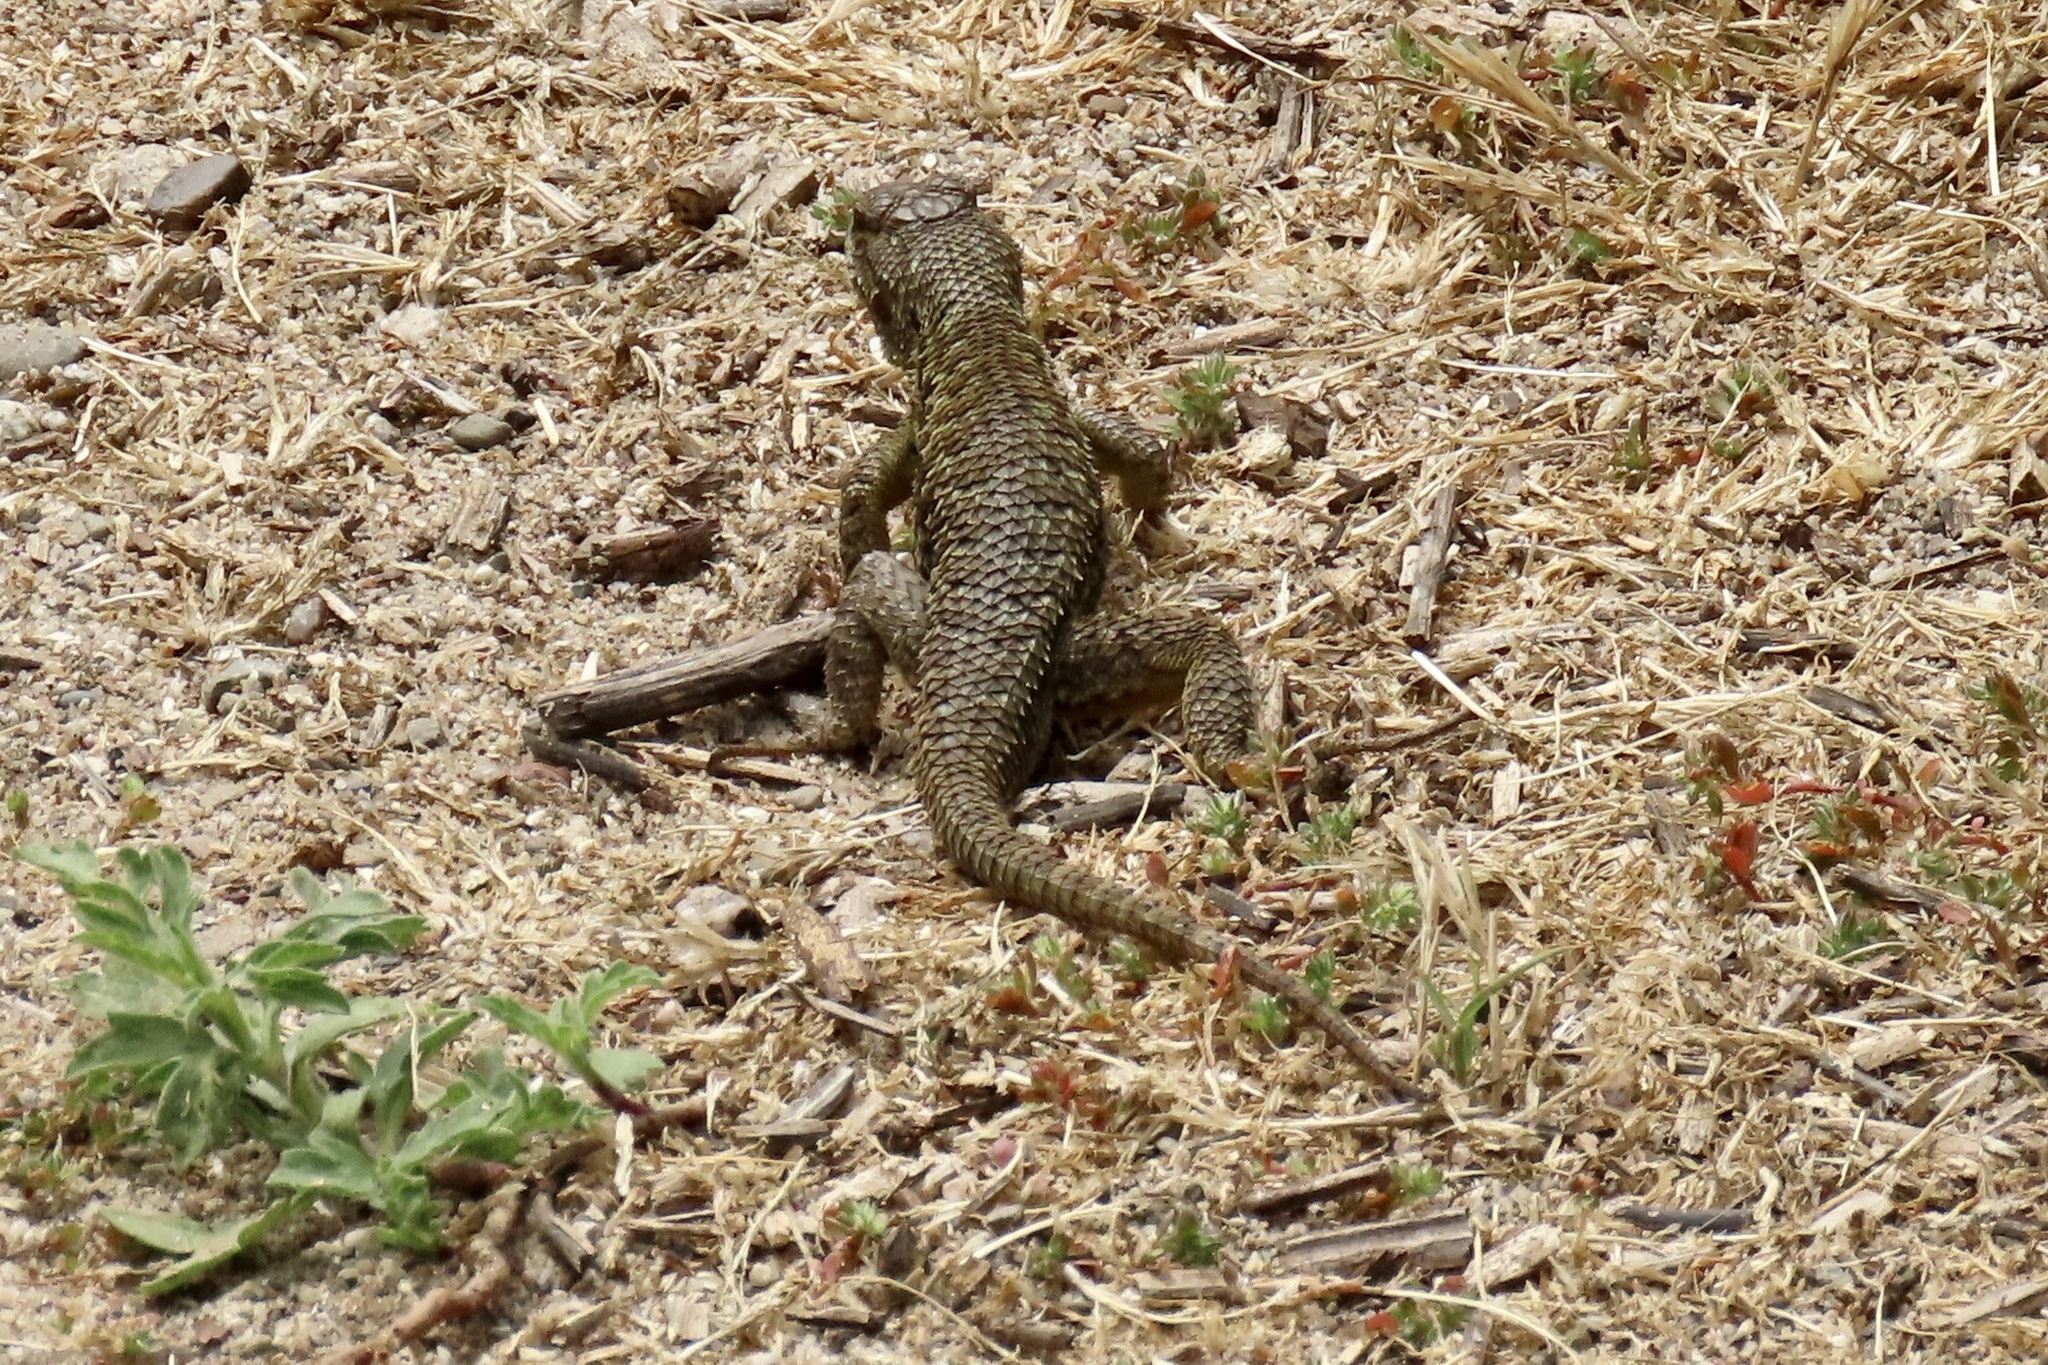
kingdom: Animalia
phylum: Chordata
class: Squamata
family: Phrynosomatidae
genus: Sceloporus
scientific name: Sceloporus occidentalis
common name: Western fence lizard
